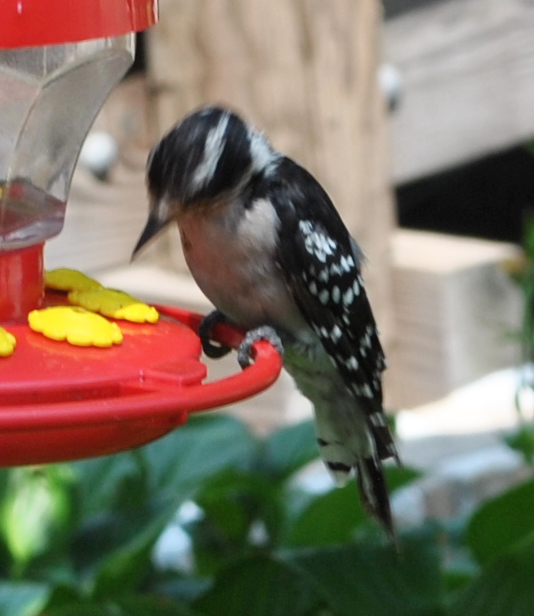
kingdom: Animalia
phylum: Chordata
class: Aves
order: Piciformes
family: Picidae
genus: Dryobates
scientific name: Dryobates pubescens
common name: Downy woodpecker
